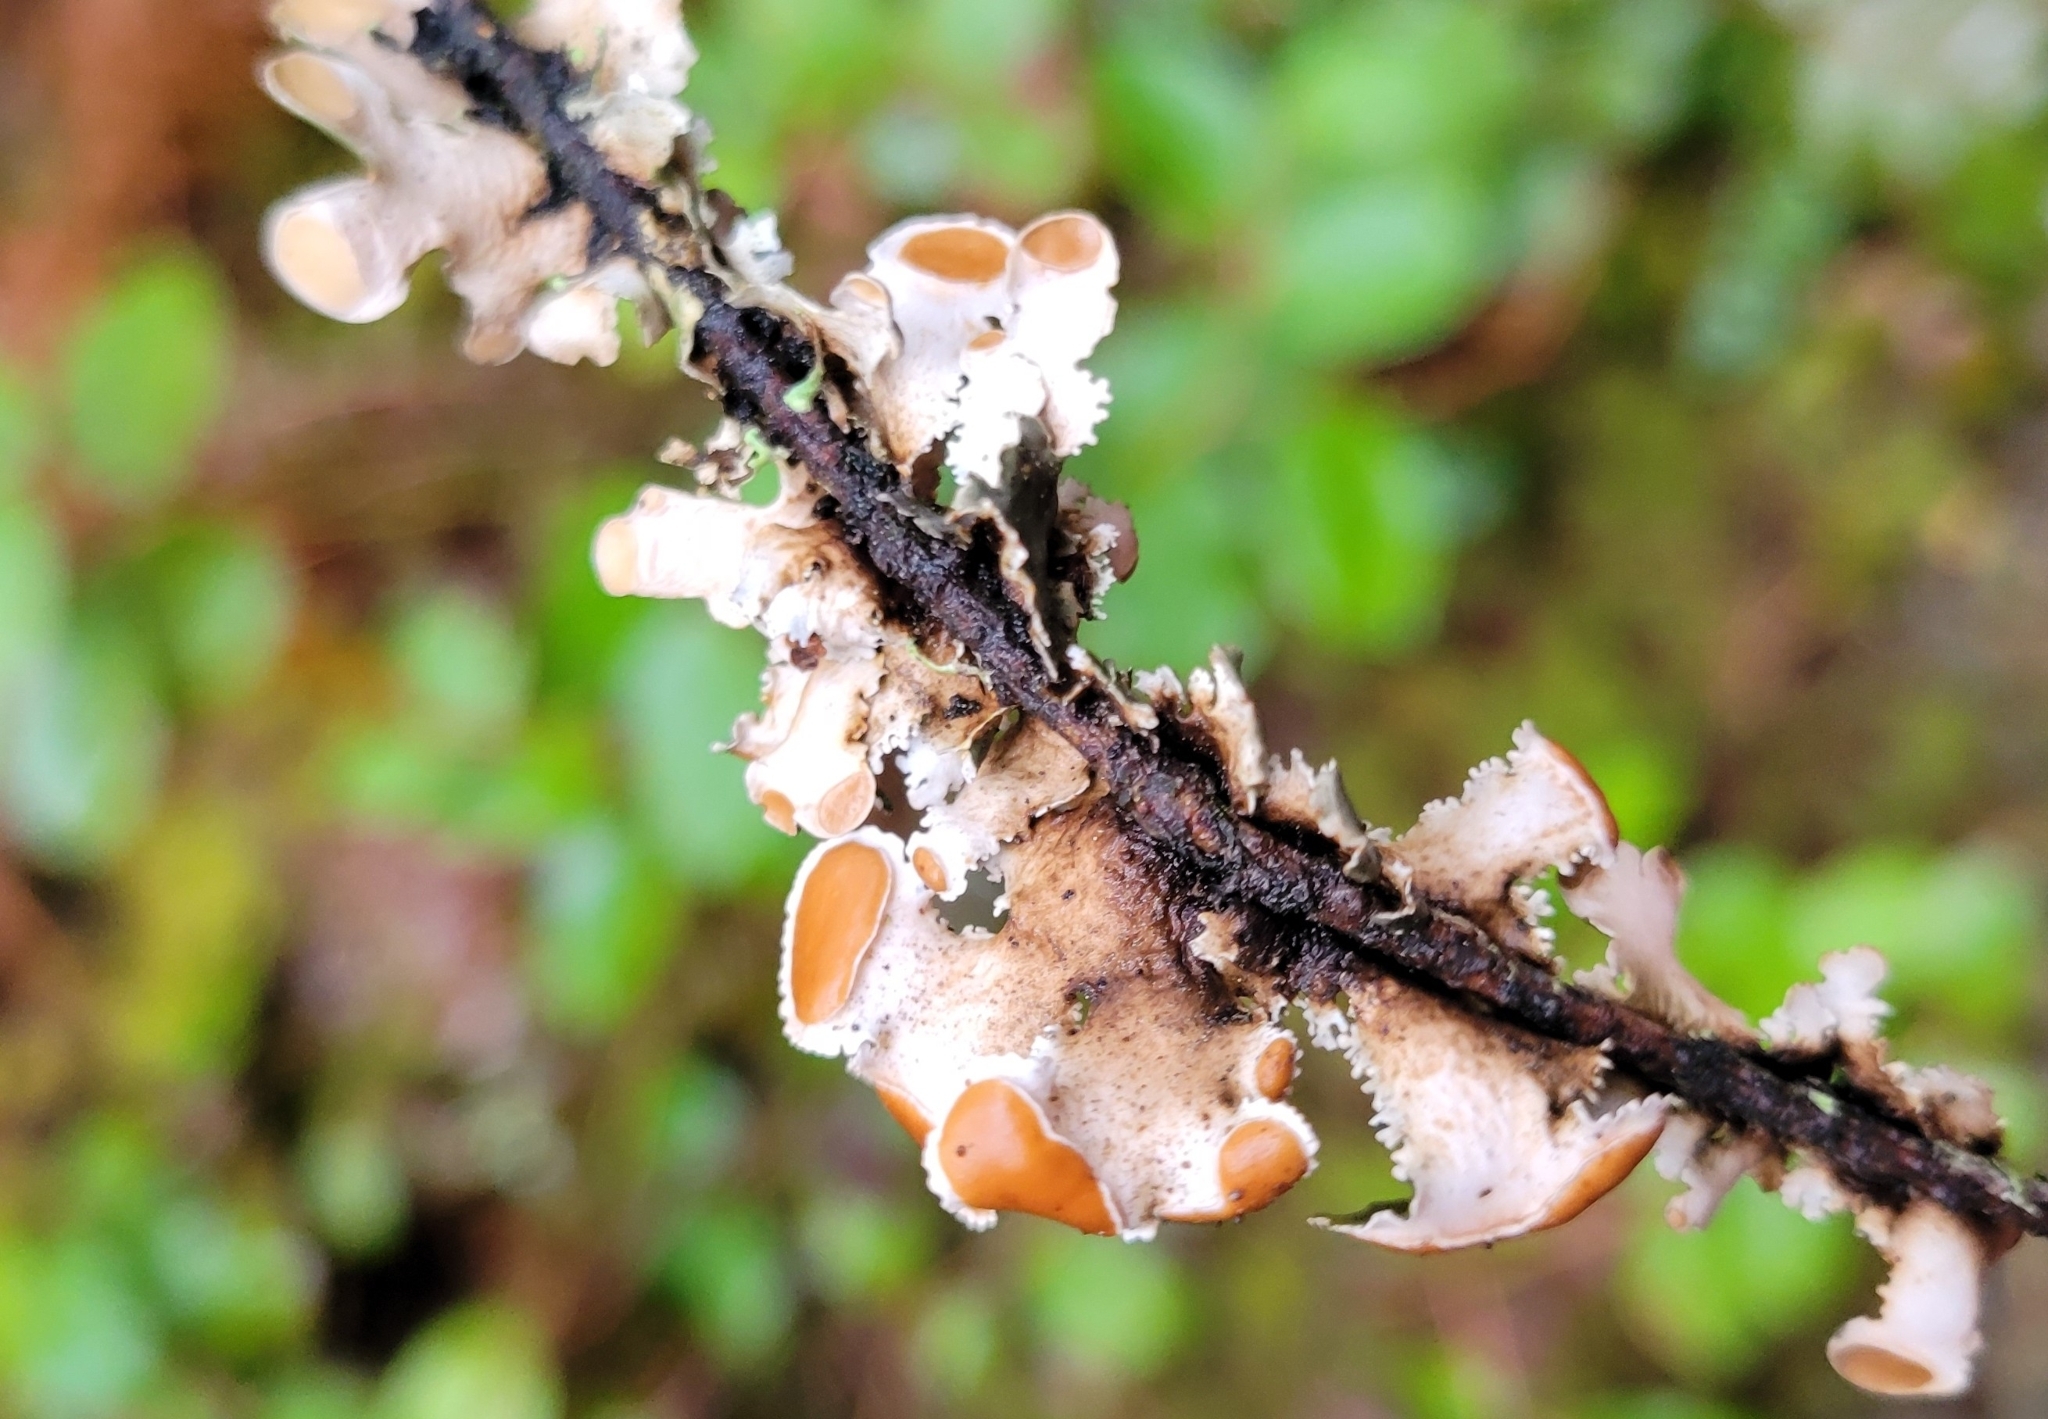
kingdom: Fungi
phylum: Ascomycota
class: Lecanoromycetes
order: Peltigerales
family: Nephromataceae
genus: Nephroma
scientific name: Nephroma helveticum
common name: Fringed kidney lichen
